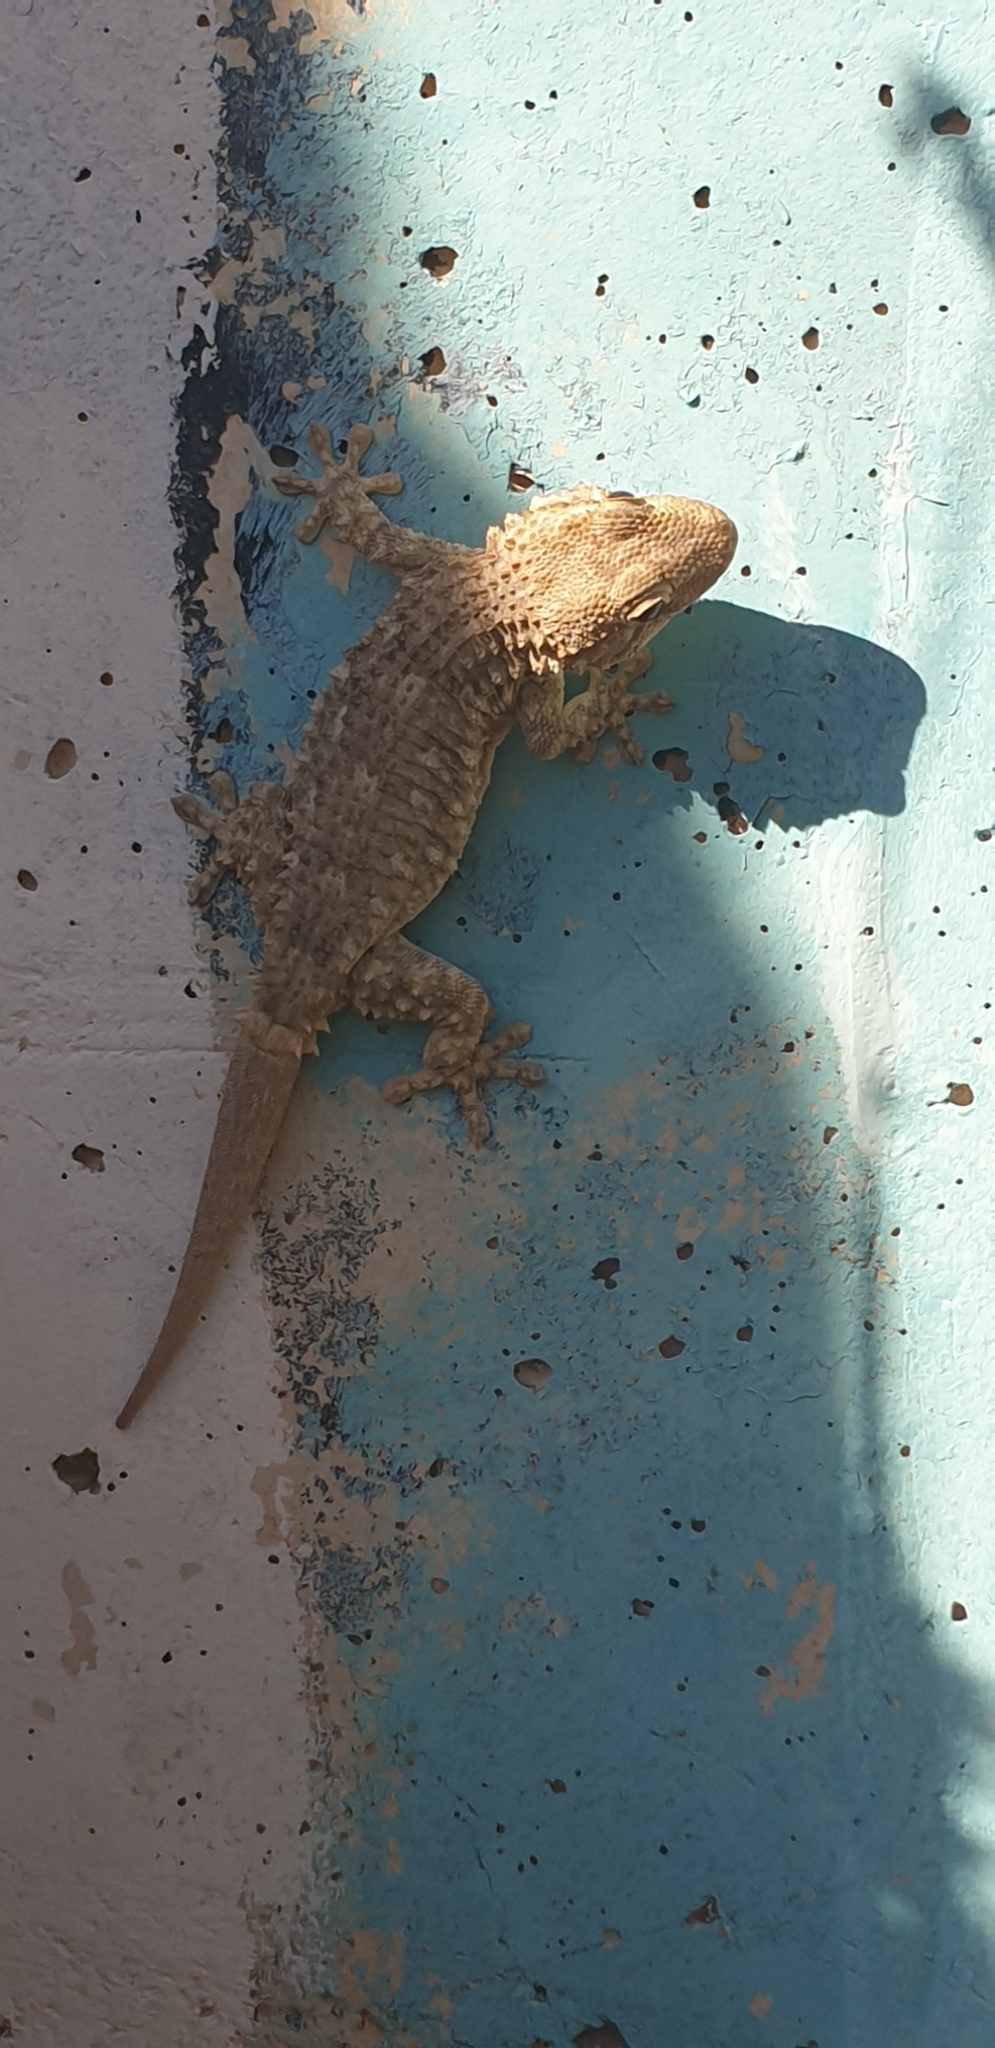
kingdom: Animalia
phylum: Chordata
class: Squamata
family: Phyllodactylidae
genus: Tarentola
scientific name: Tarentola mauritanica
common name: Moorish gecko
